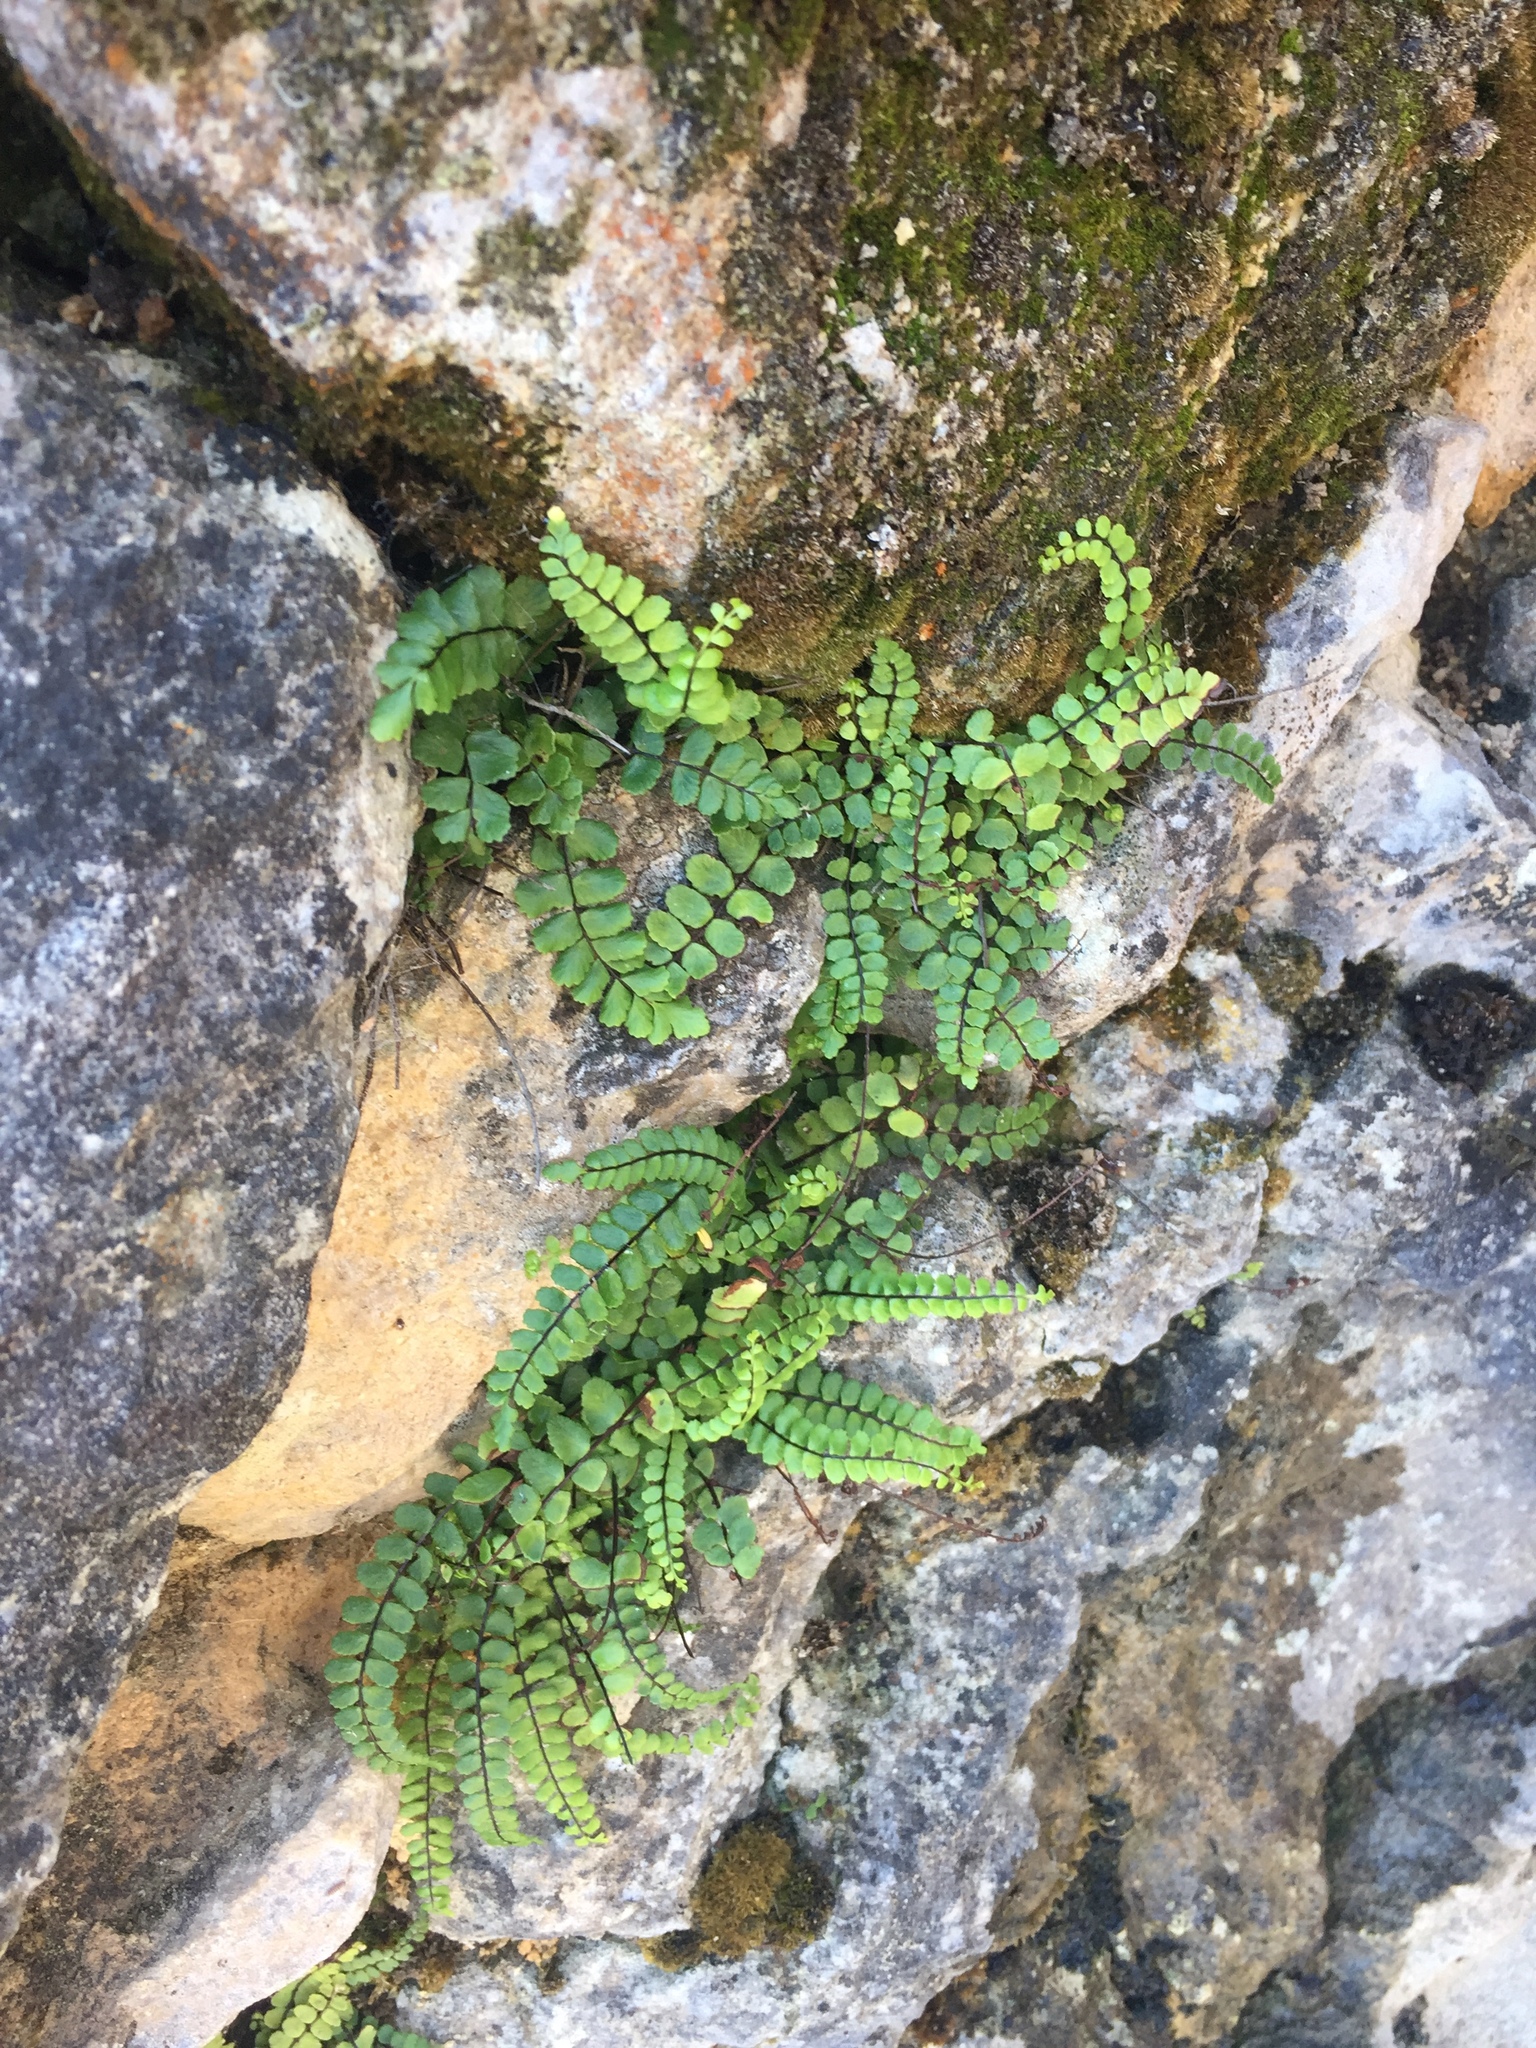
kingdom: Plantae
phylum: Tracheophyta
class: Polypodiopsida
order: Polypodiales
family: Aspleniaceae
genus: Asplenium
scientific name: Asplenium trichomanes
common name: Maidenhair spleenwort
